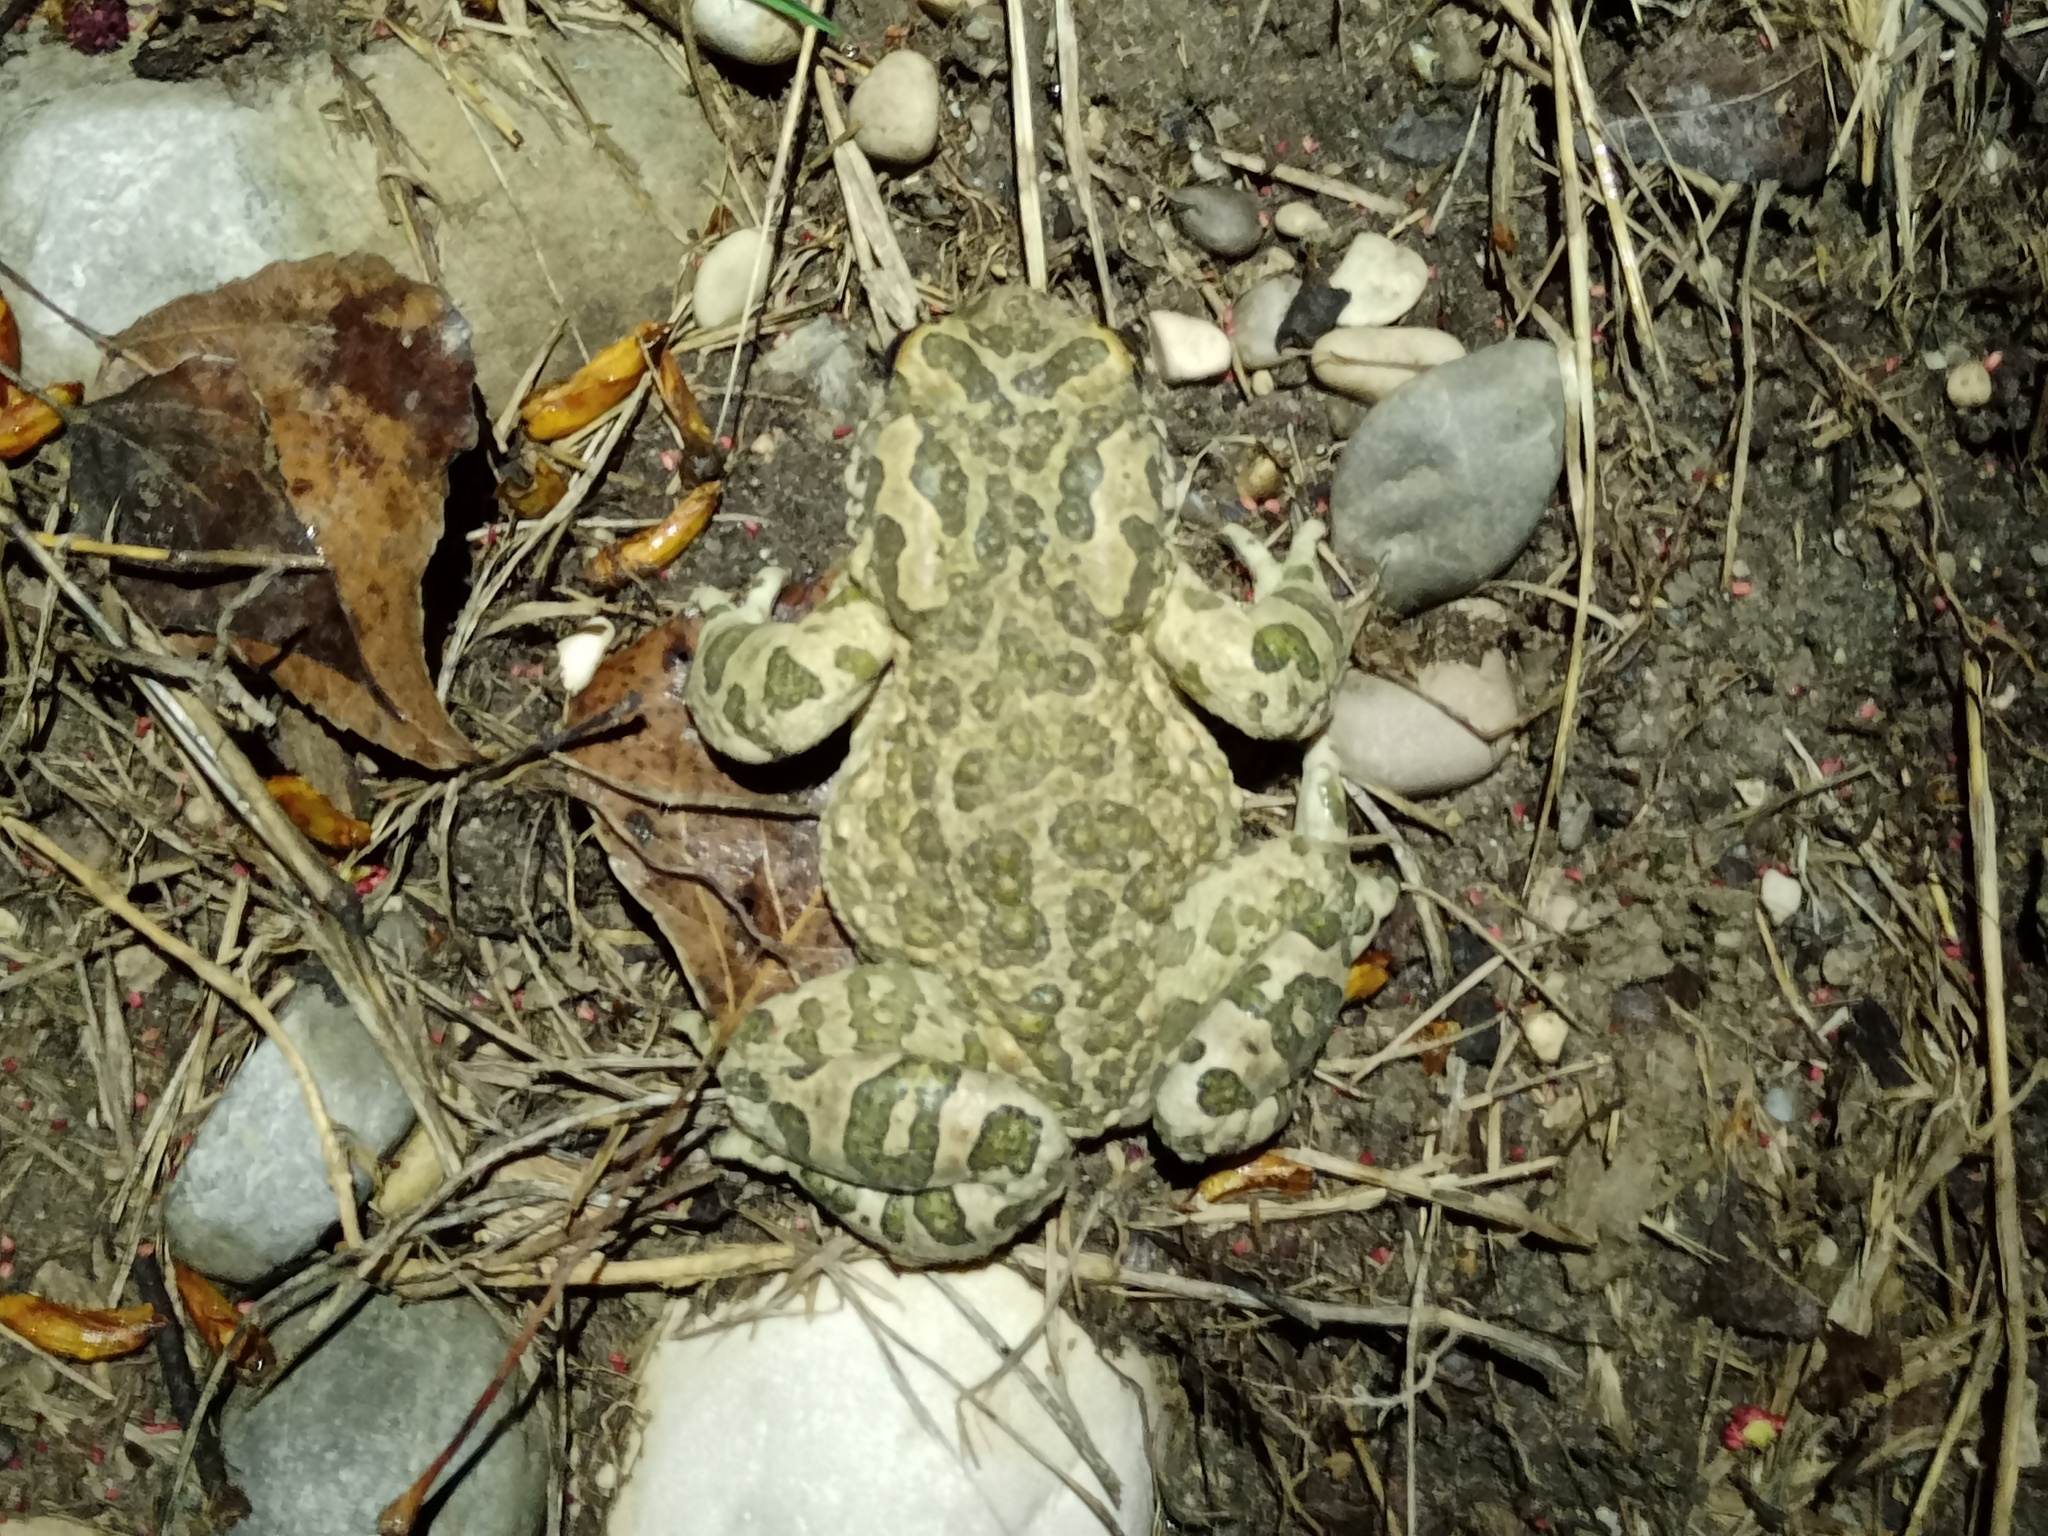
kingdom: Animalia
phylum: Chordata
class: Amphibia
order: Anura
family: Bufonidae
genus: Bufotes
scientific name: Bufotes viridis
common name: European green toad
